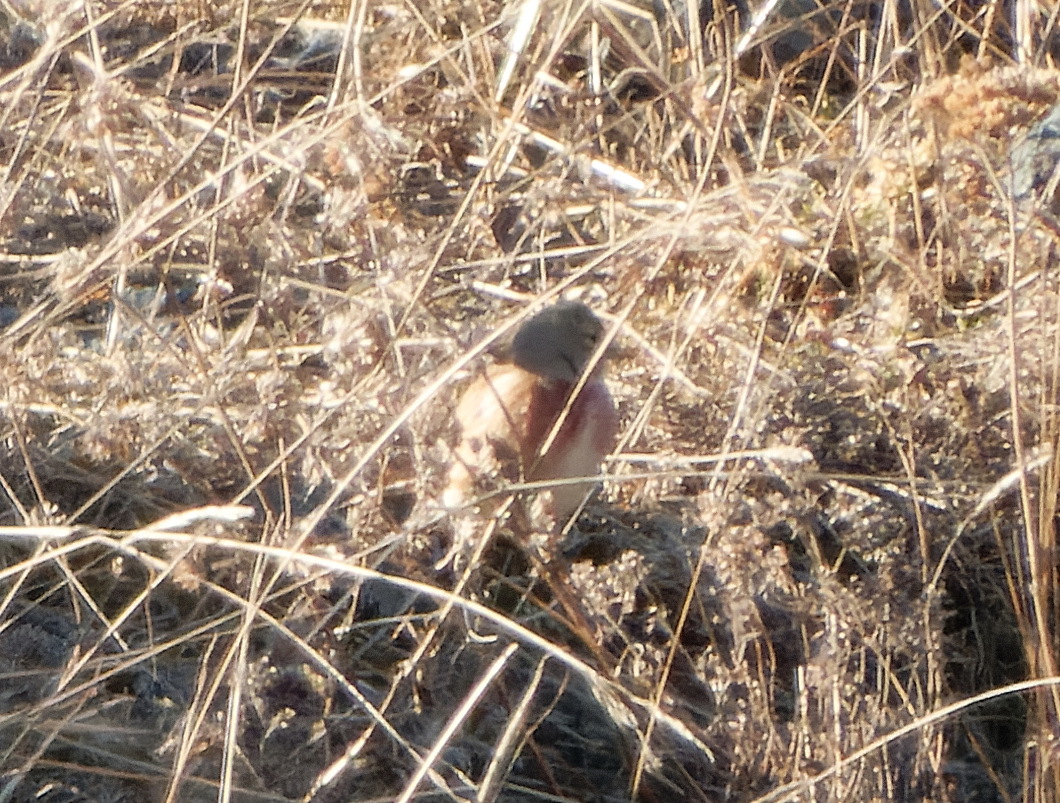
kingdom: Animalia
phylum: Chordata
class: Aves
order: Passeriformes
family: Fringillidae
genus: Linaria
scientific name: Linaria cannabina
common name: Common linnet
